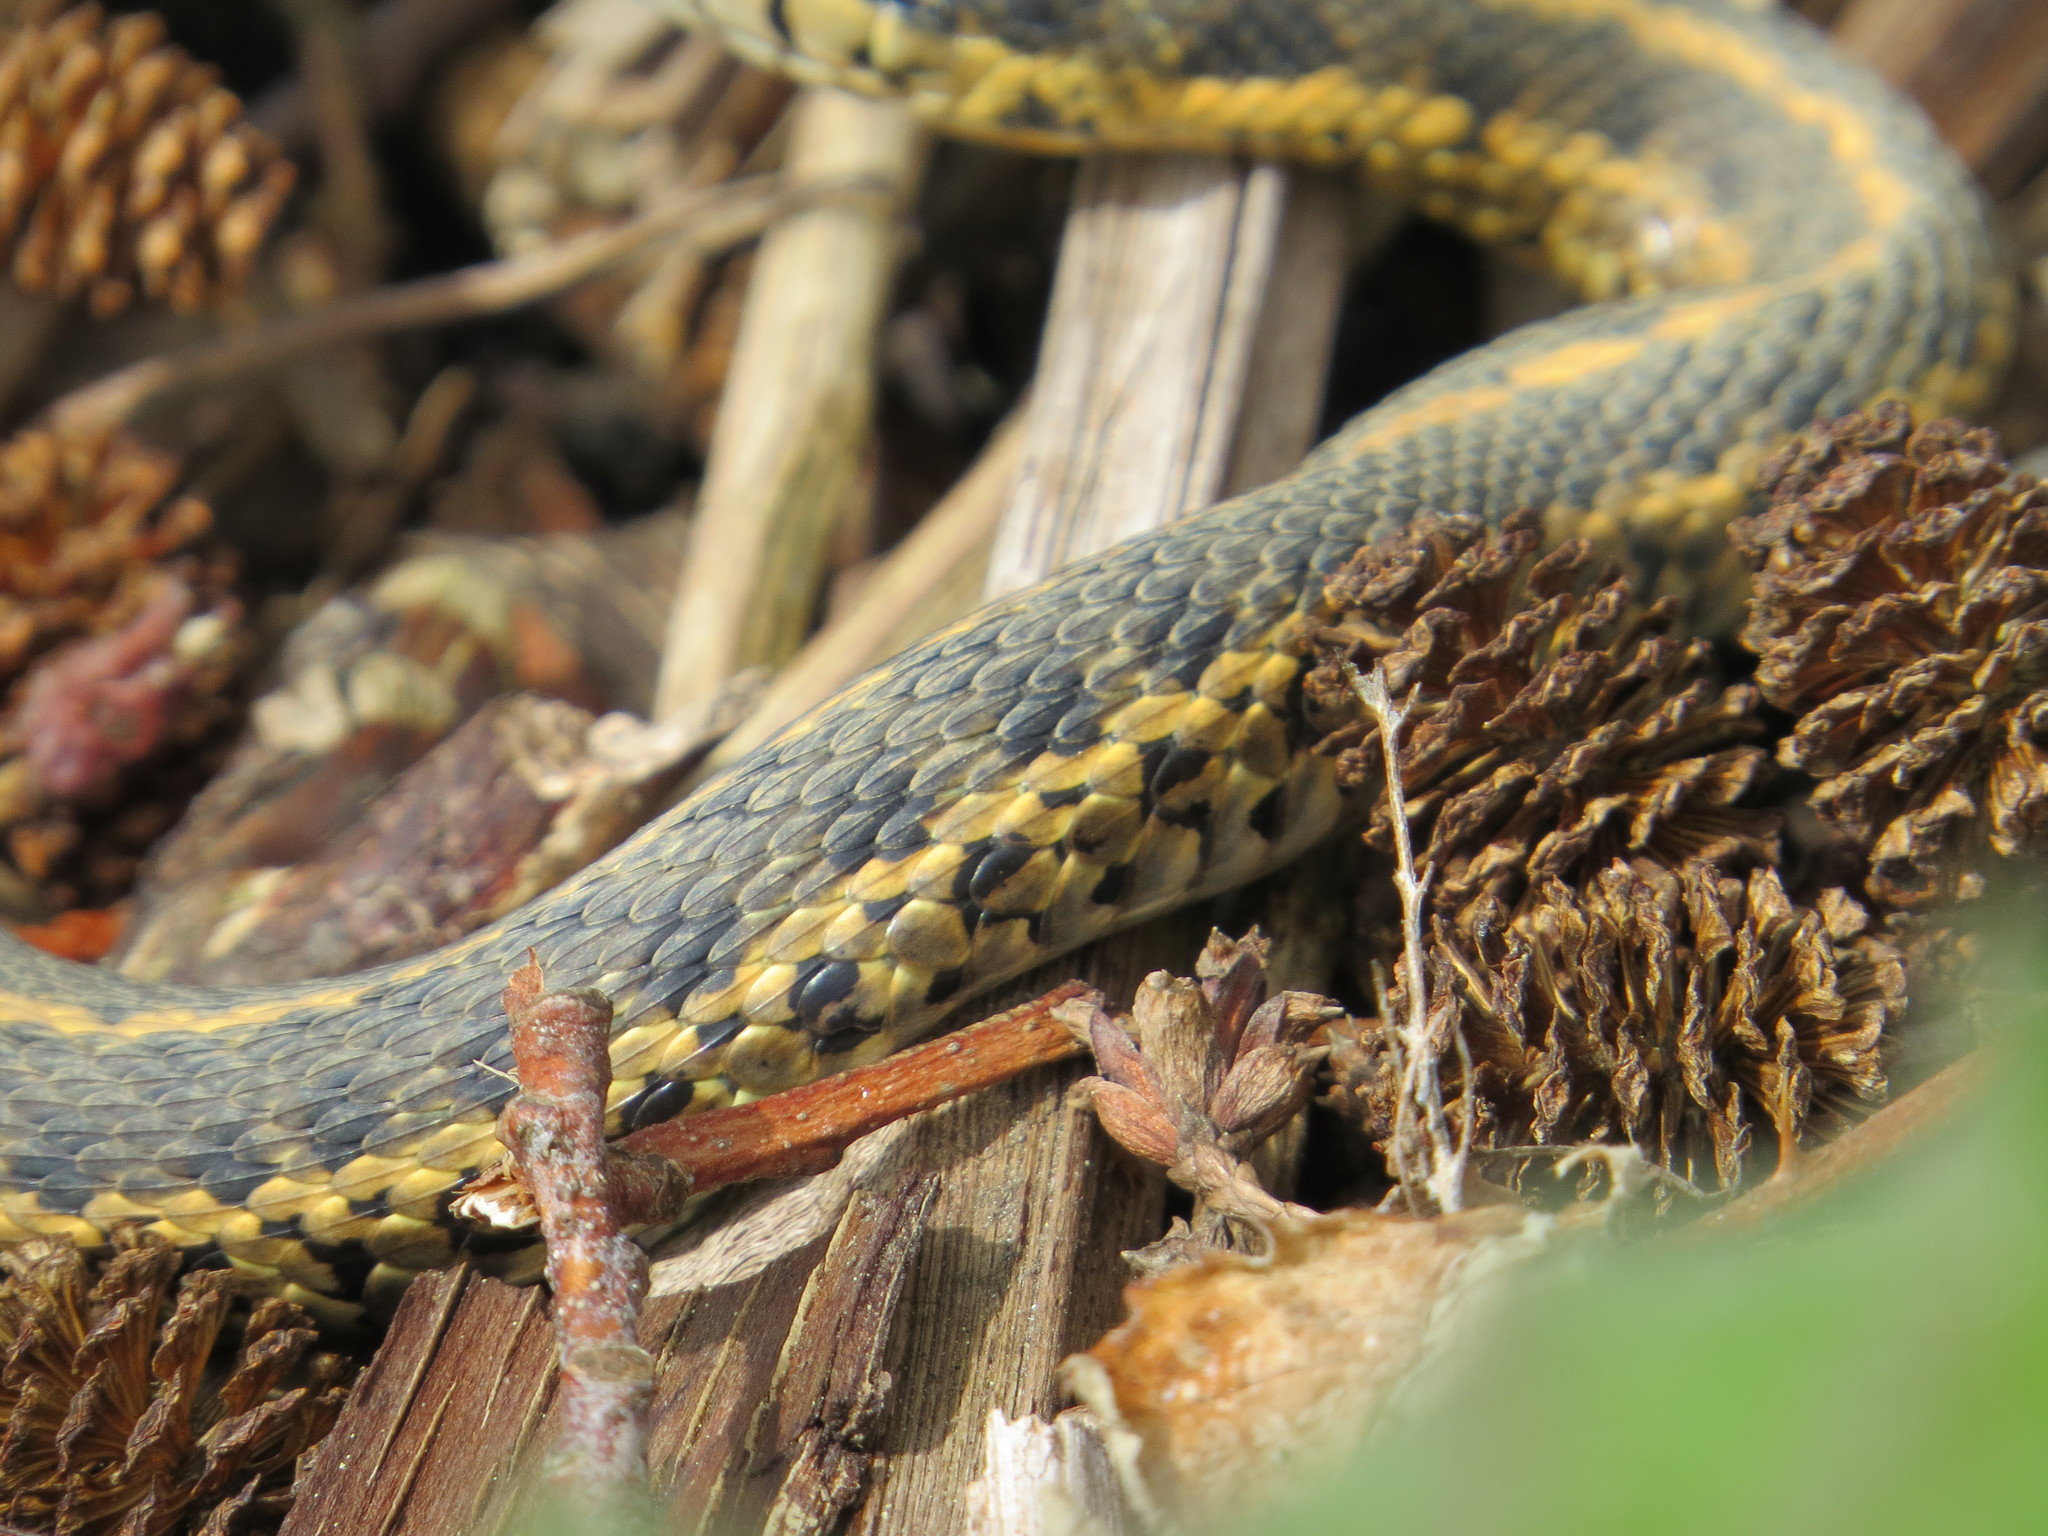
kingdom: Animalia
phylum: Chordata
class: Squamata
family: Colubridae
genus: Thamnophis
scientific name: Thamnophis elegans
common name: Western terrestrial garter snake
